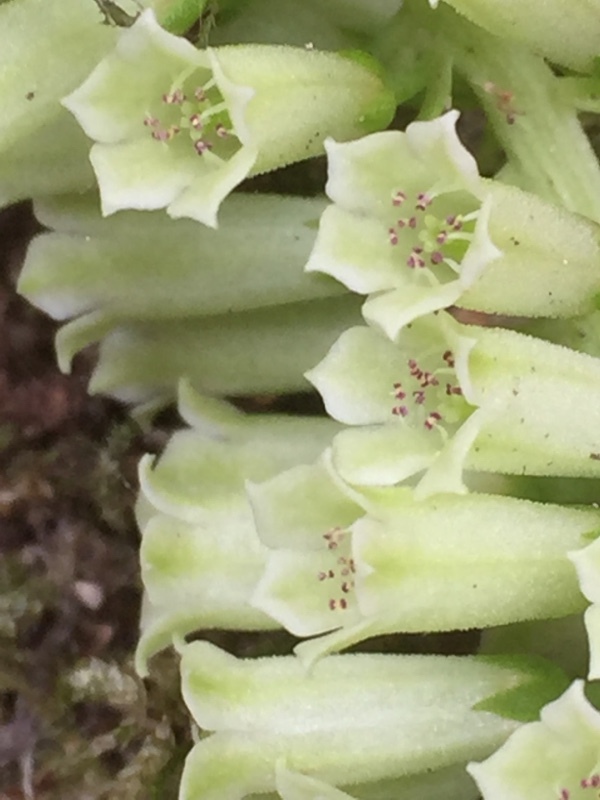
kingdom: Plantae
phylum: Tracheophyta
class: Magnoliopsida
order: Saxifragales
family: Crassulaceae
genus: Umbilicus
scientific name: Umbilicus rupestris
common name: Navelwort
